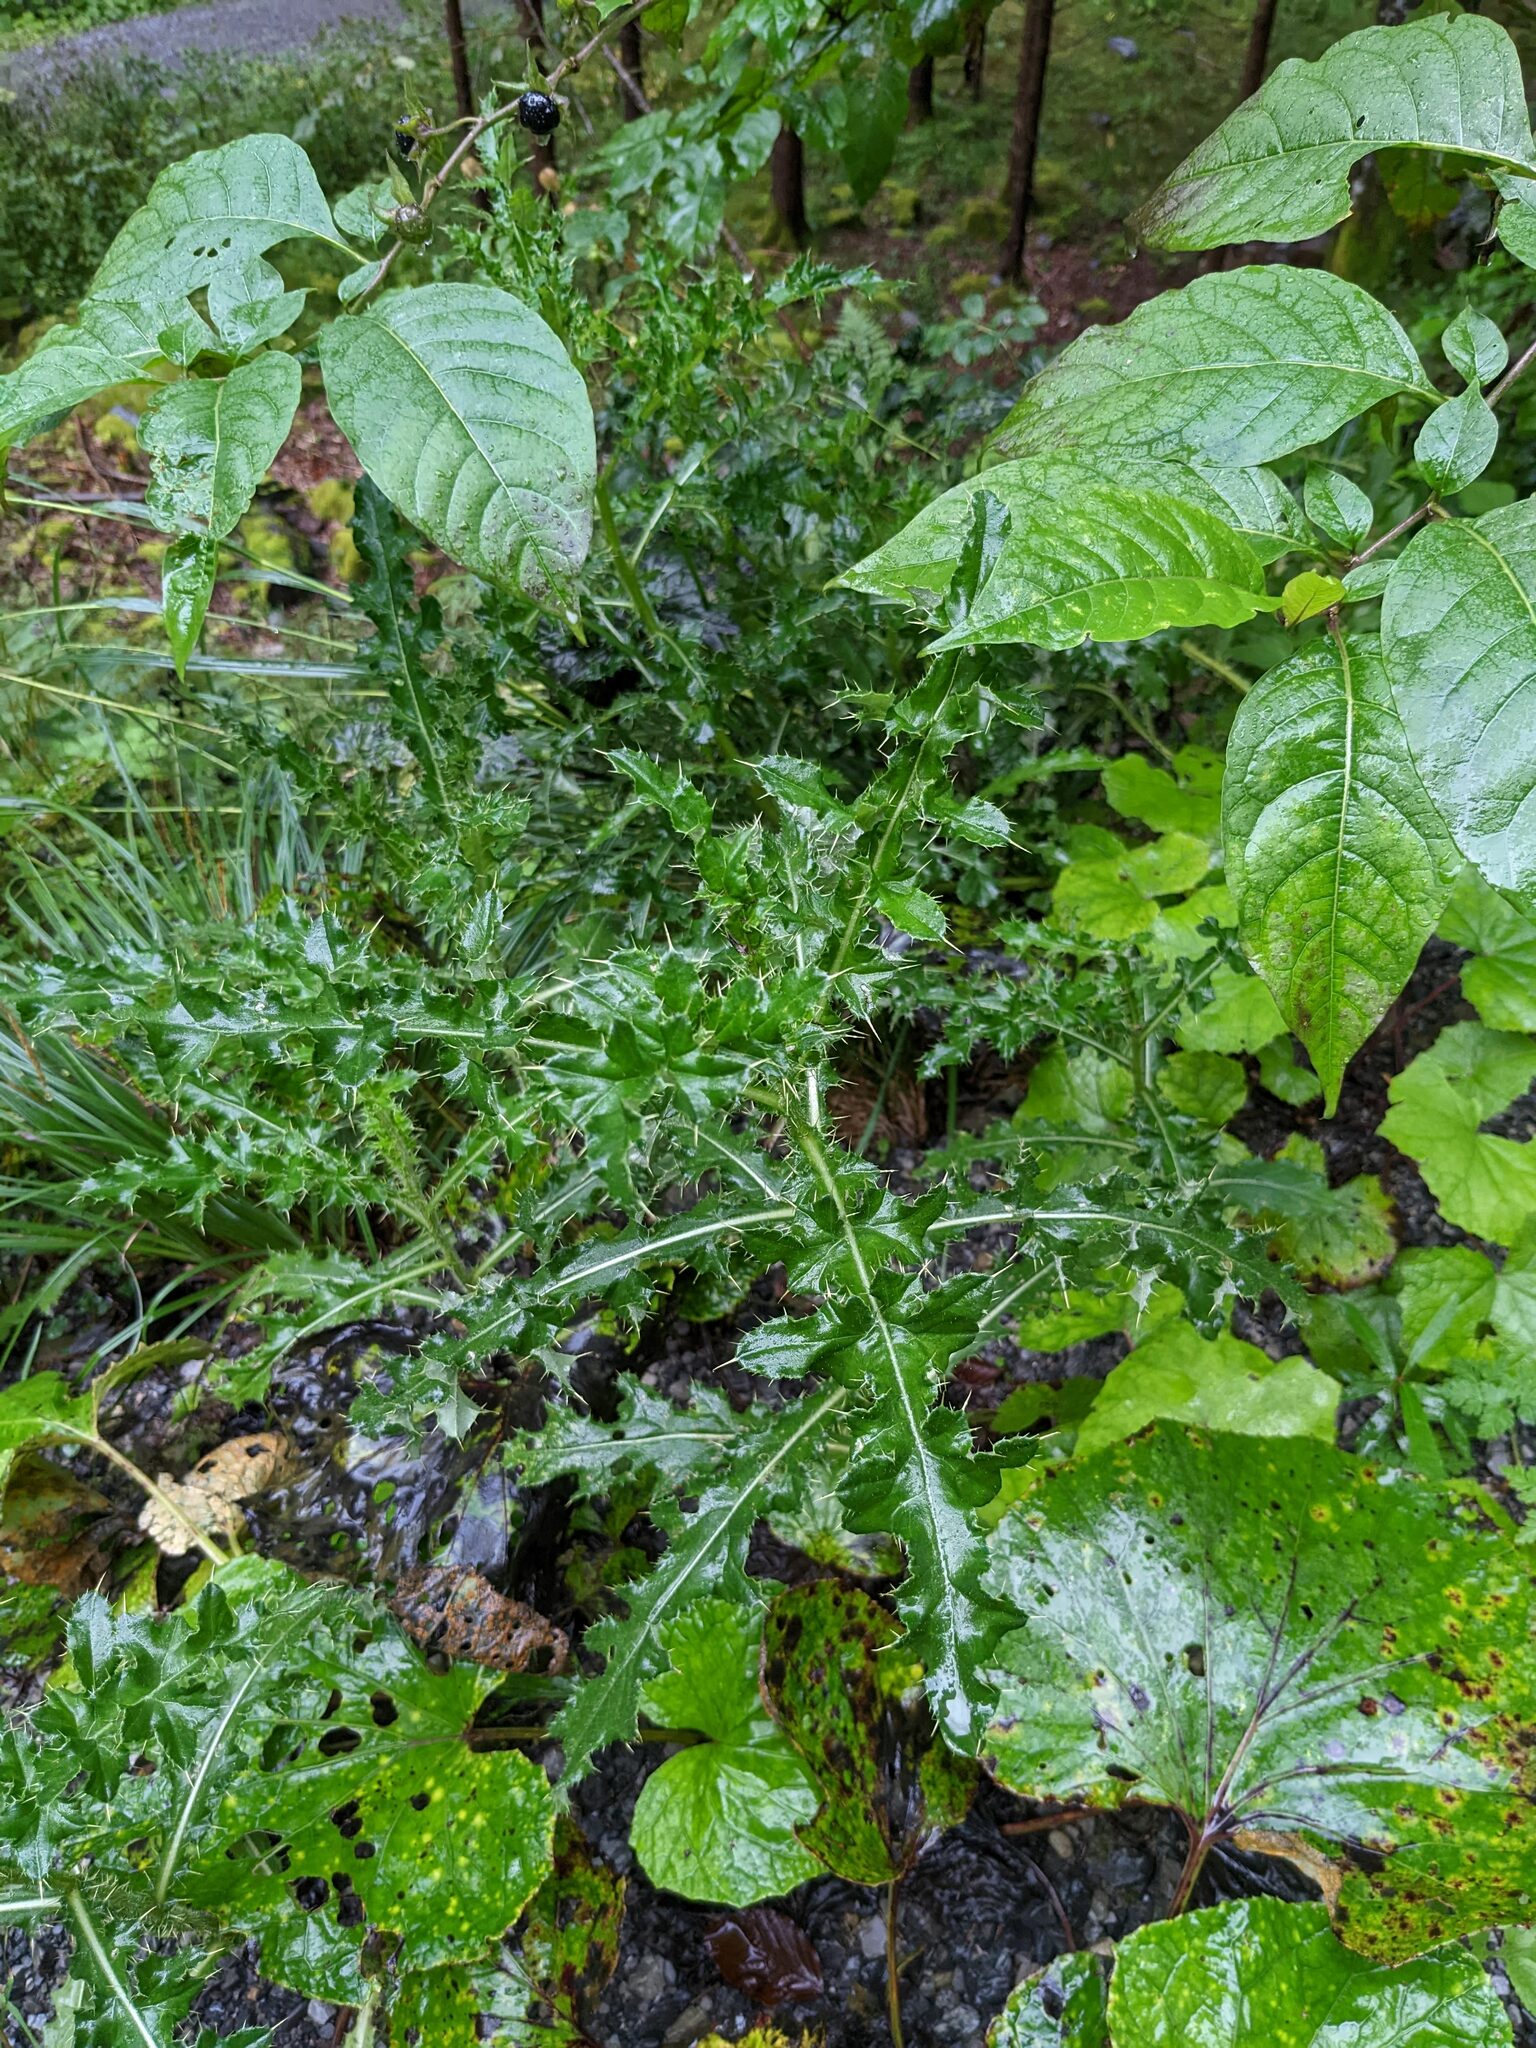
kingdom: Plantae
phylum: Tracheophyta
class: Magnoliopsida
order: Asterales
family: Asteraceae
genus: Cirsium
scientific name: Cirsium arvense
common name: Creeping thistle
